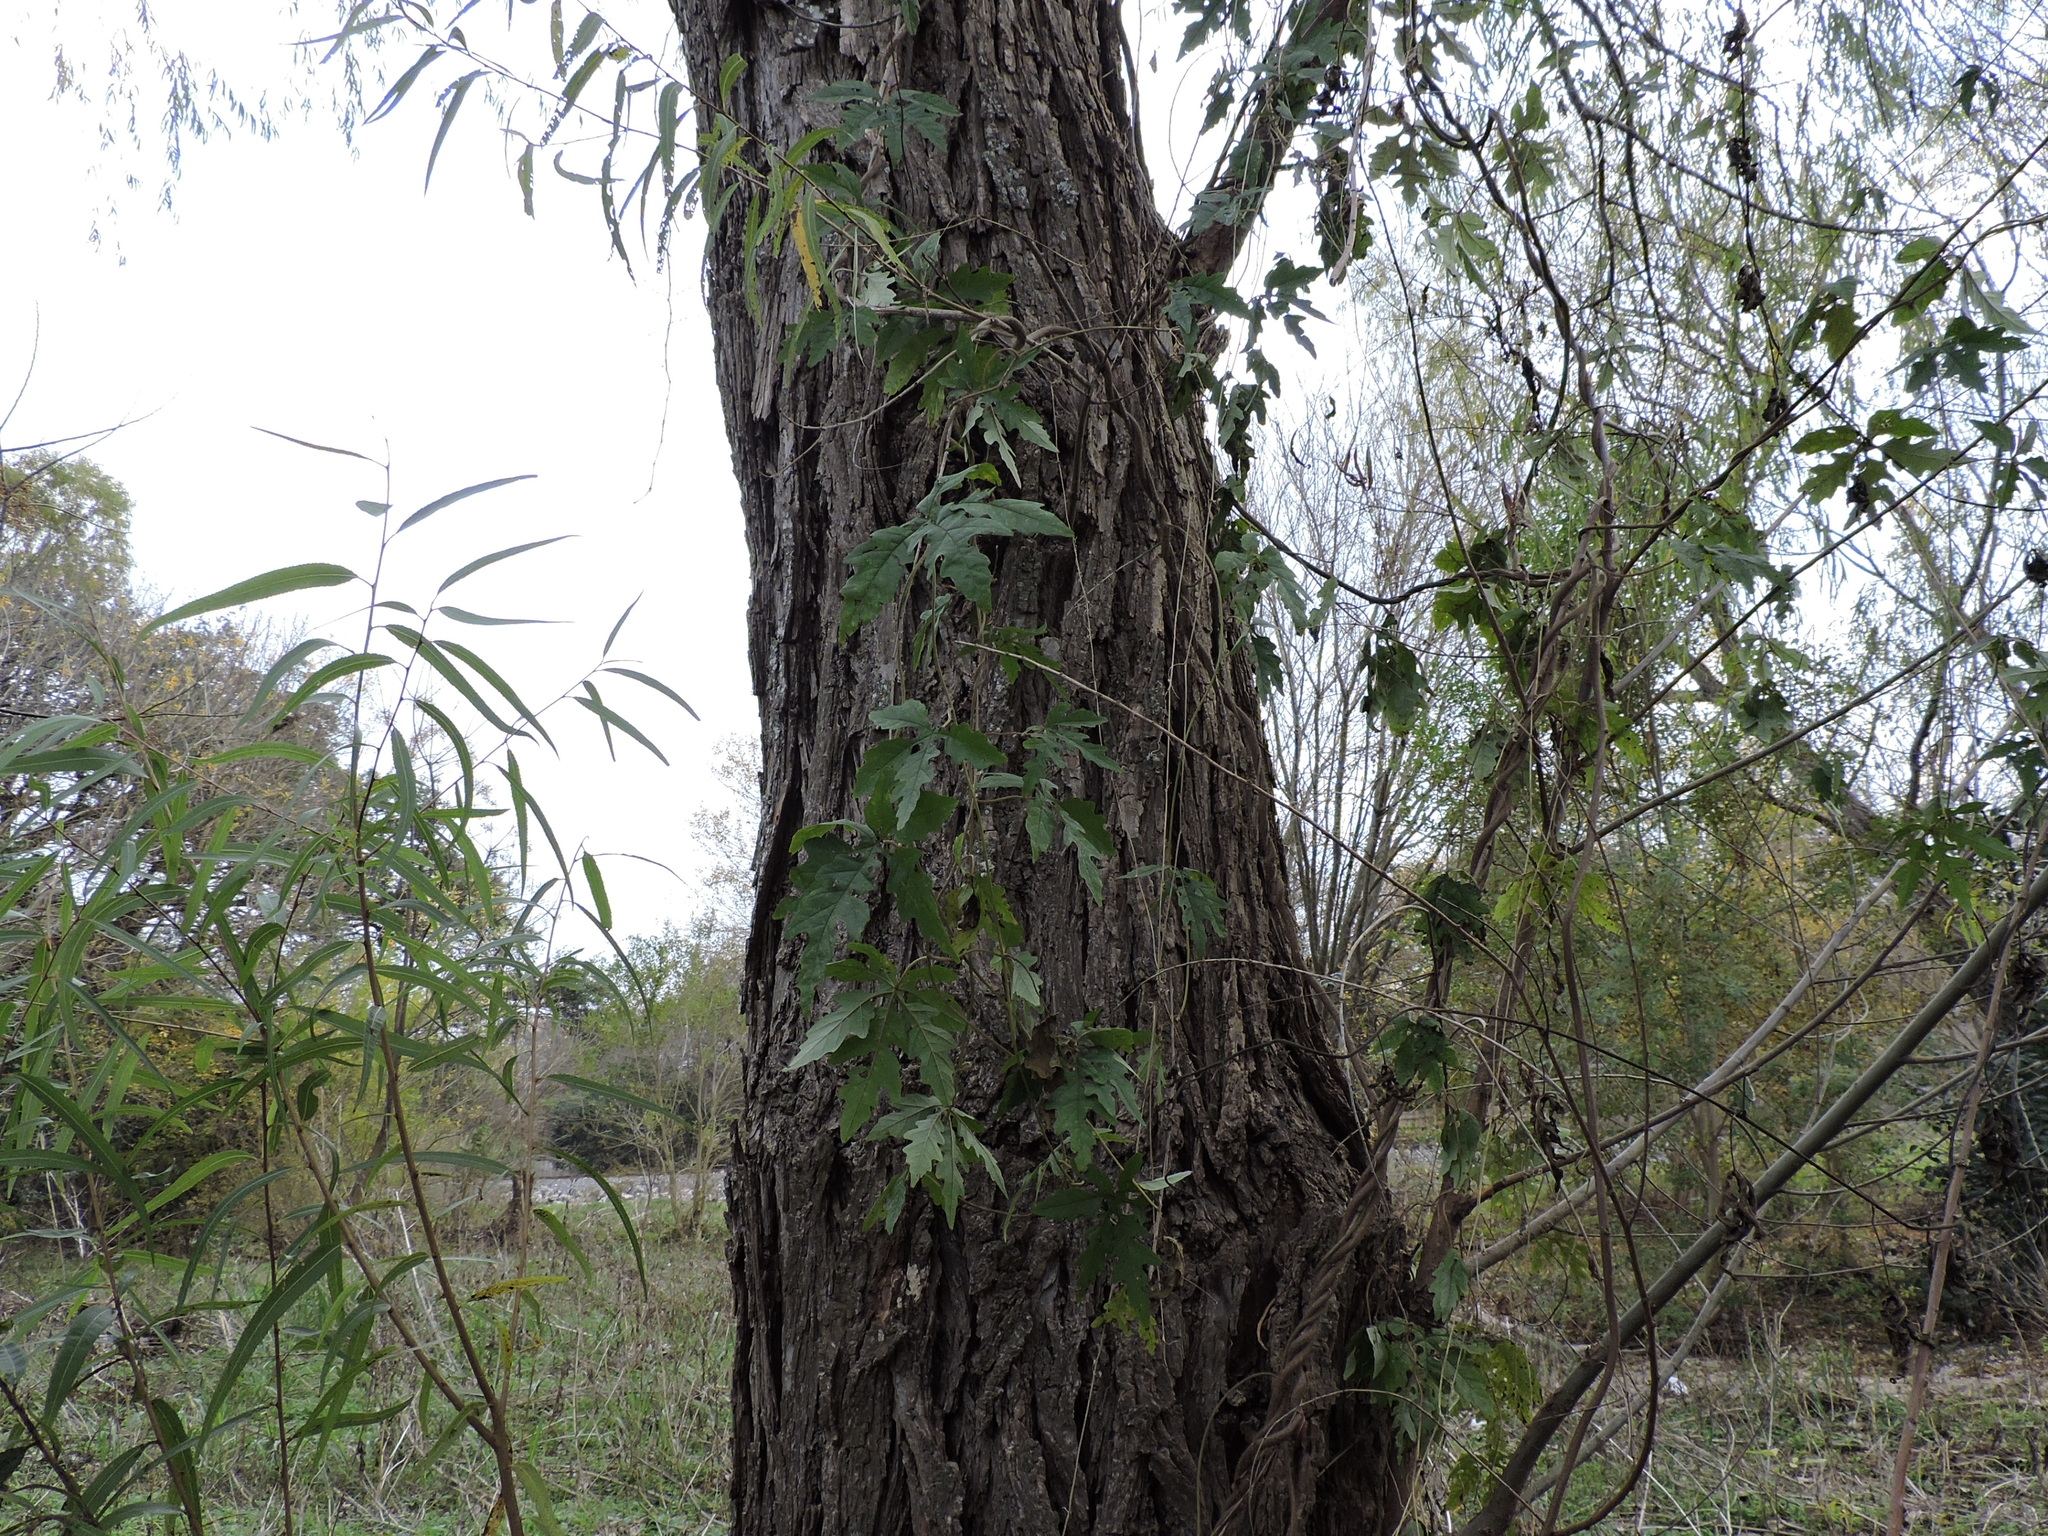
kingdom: Plantae
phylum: Tracheophyta
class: Magnoliopsida
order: Solanales
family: Convolvulaceae
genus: Distimake
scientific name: Distimake dissectus
